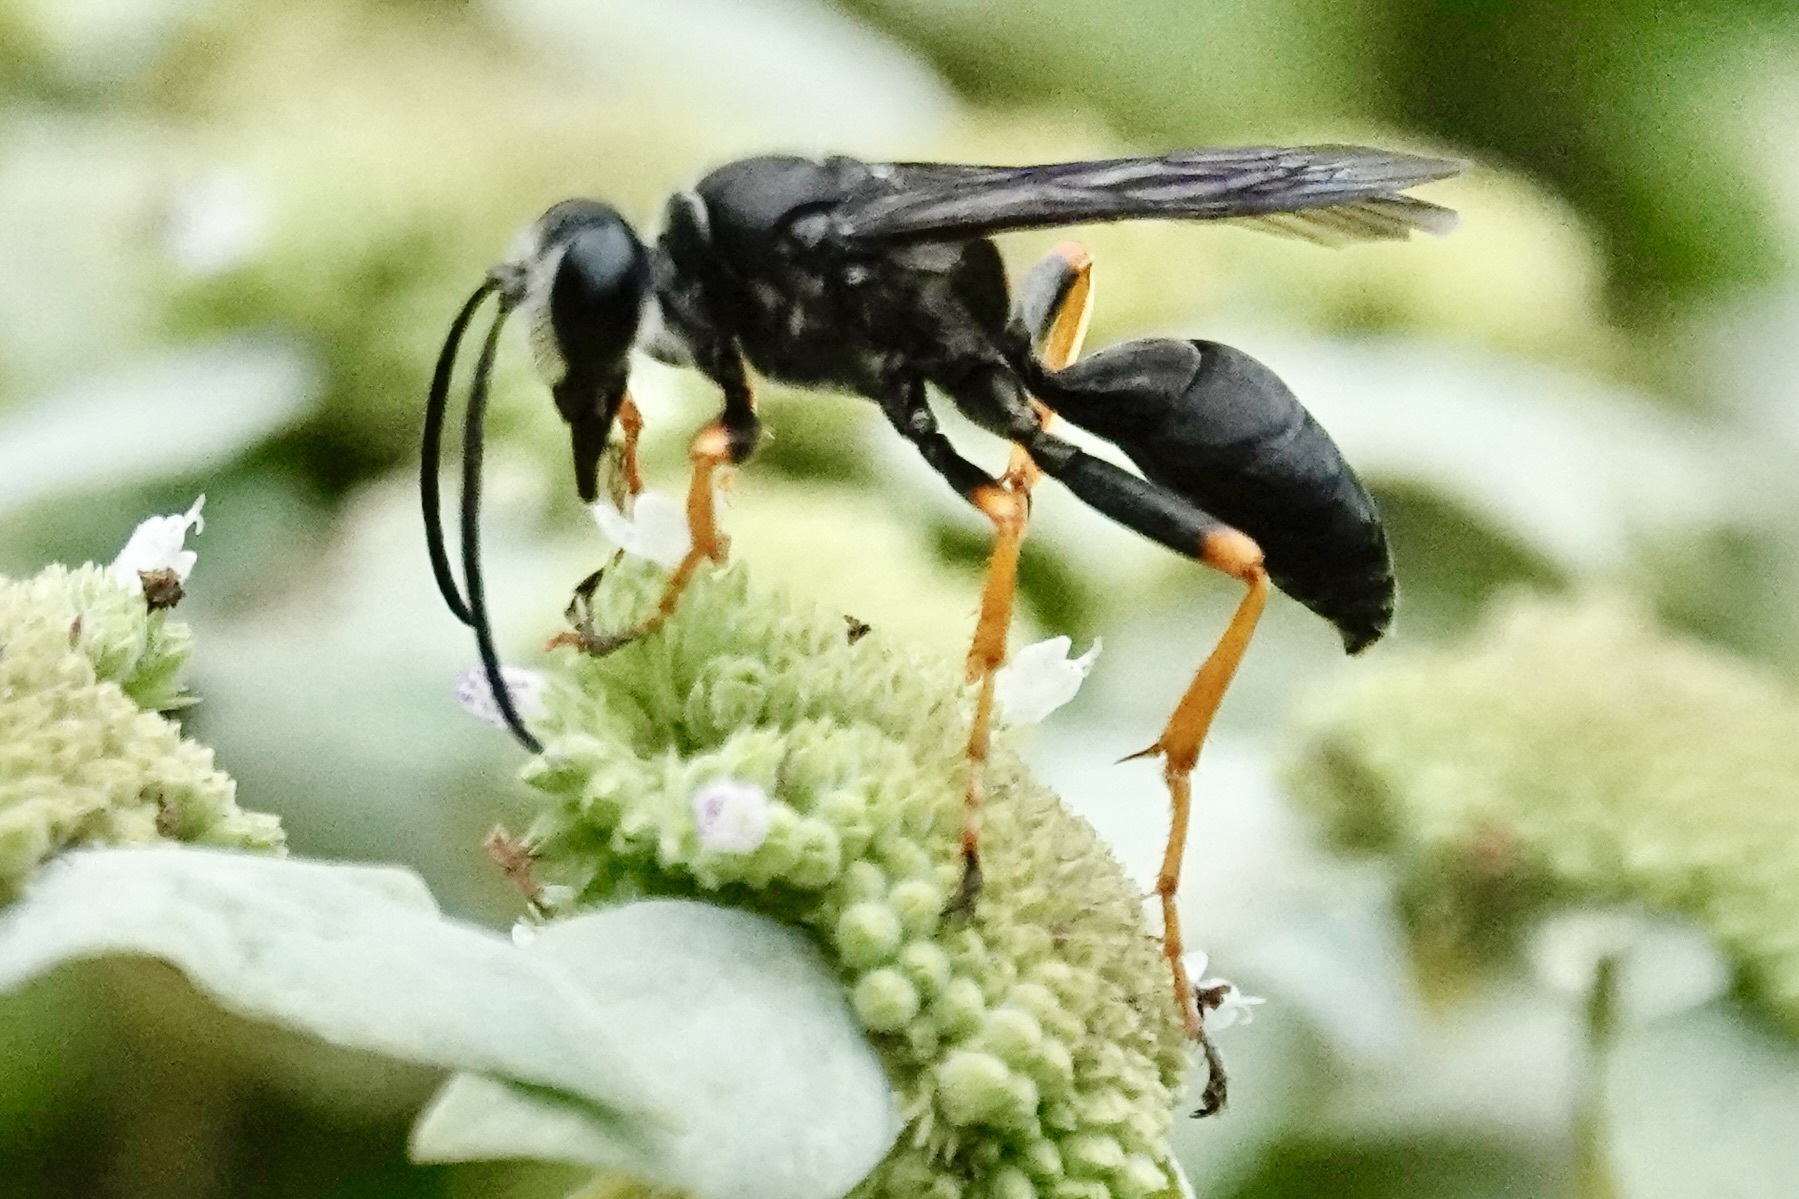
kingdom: Animalia
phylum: Arthropoda
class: Insecta
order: Hymenoptera
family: Sphecidae
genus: Sphex
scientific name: Sphex nudus
